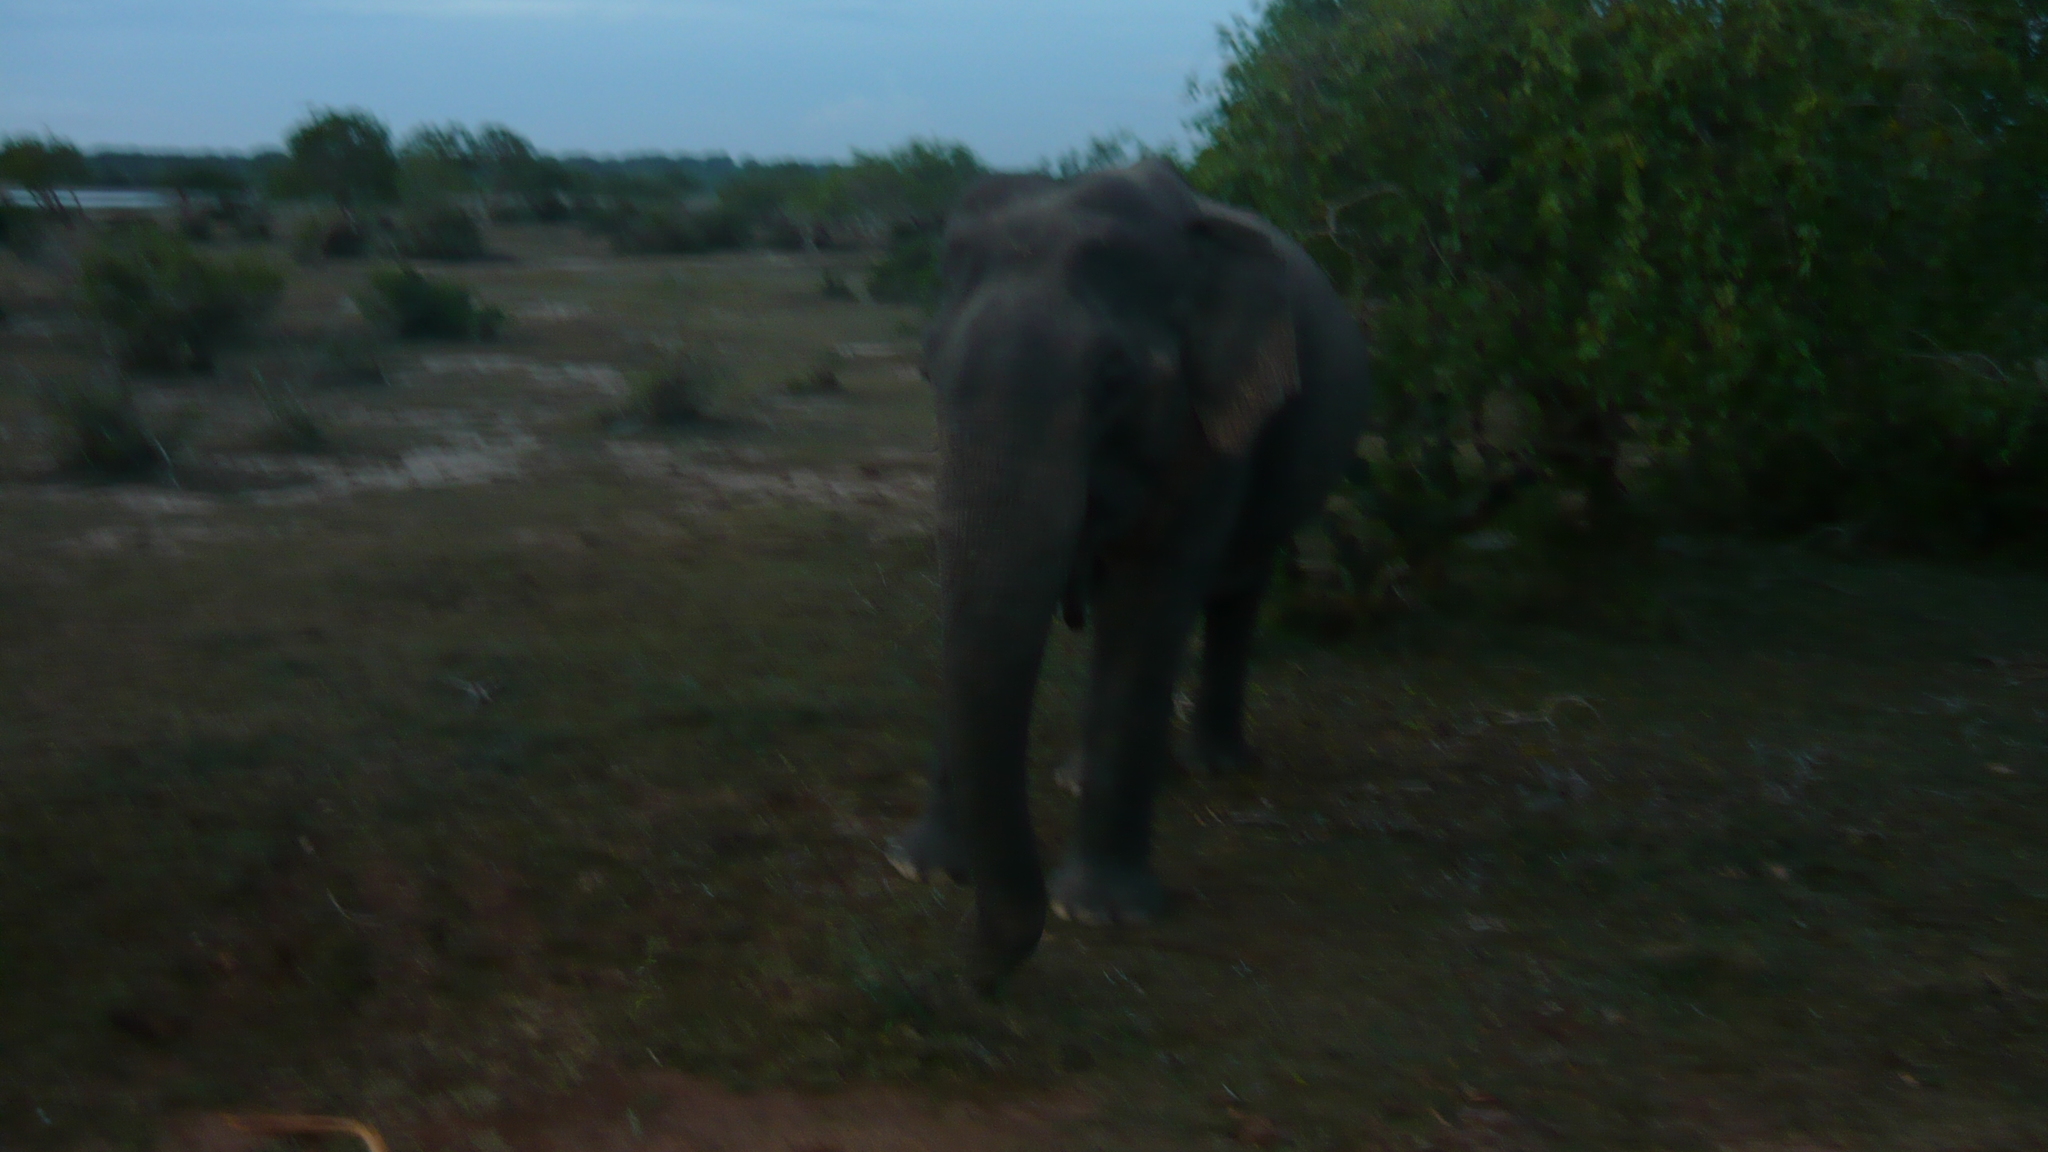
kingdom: Animalia
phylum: Chordata
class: Mammalia
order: Proboscidea
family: Elephantidae
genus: Elephas
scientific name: Elephas maximus
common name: Asian elephant
